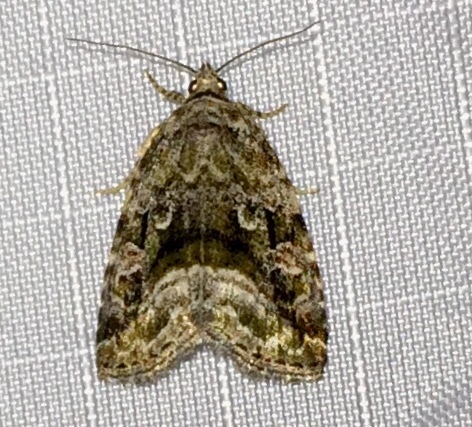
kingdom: Animalia
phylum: Arthropoda
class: Insecta
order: Lepidoptera
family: Noctuidae
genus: Protodeltote
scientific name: Protodeltote muscosula
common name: Large mossy glyph
